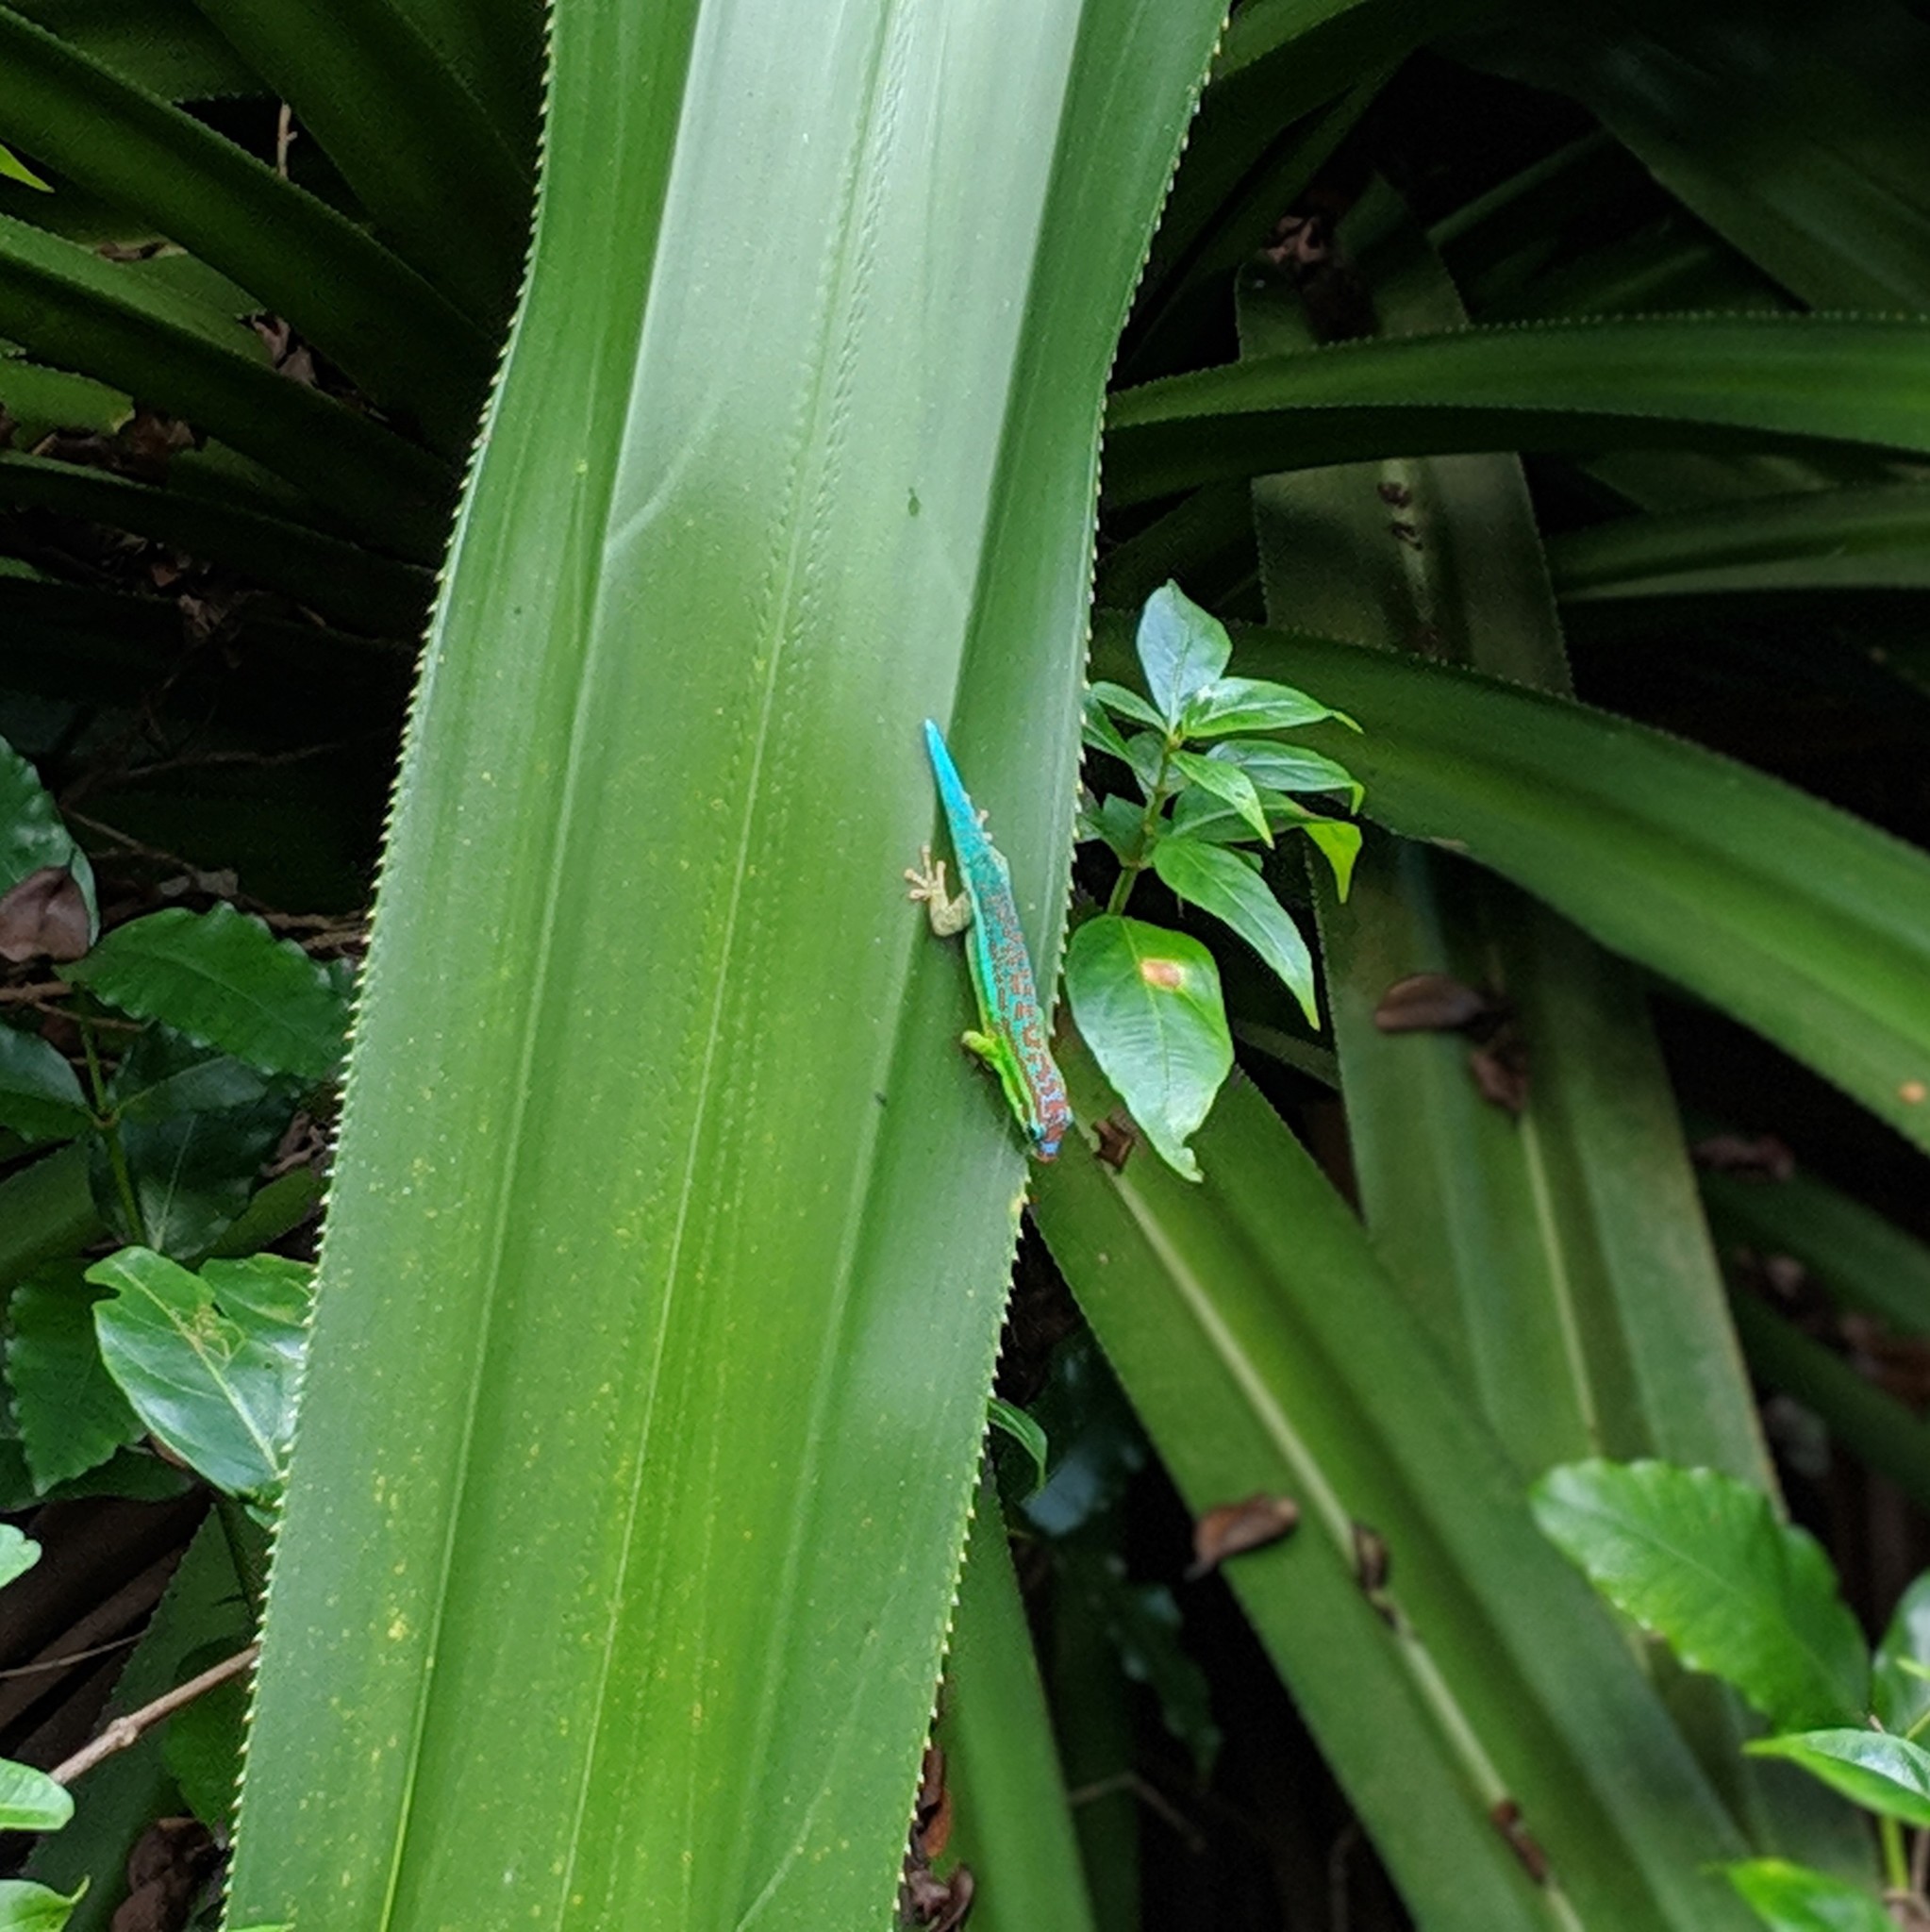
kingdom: Animalia
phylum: Chordata
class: Squamata
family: Gekkonidae
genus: Phelsuma
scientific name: Phelsuma cepediana
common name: Bluetail day gecko
